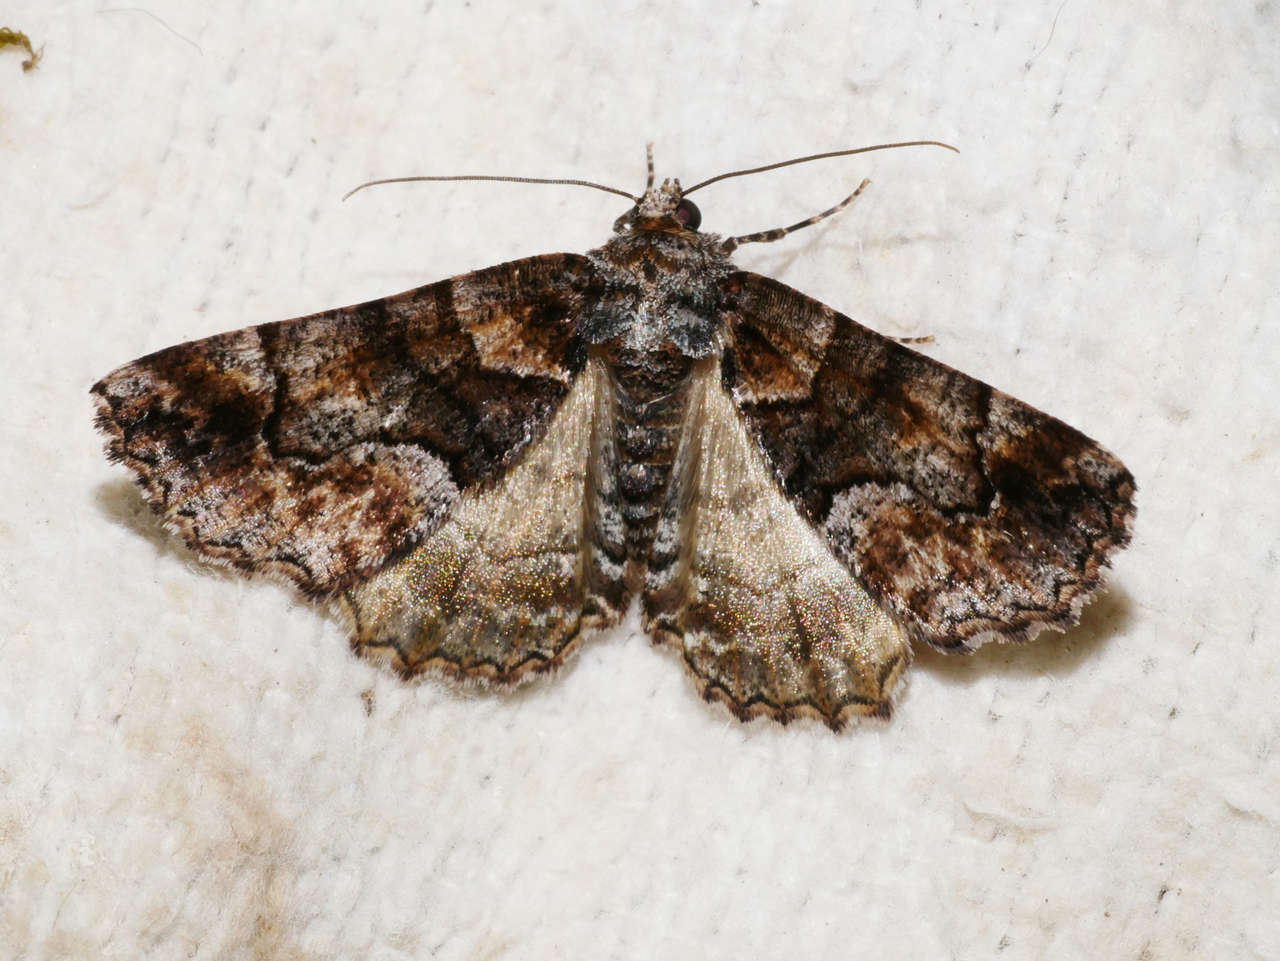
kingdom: Animalia
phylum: Arthropoda
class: Insecta
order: Lepidoptera
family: Geometridae
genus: Gastrina
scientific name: Gastrina cristaria
